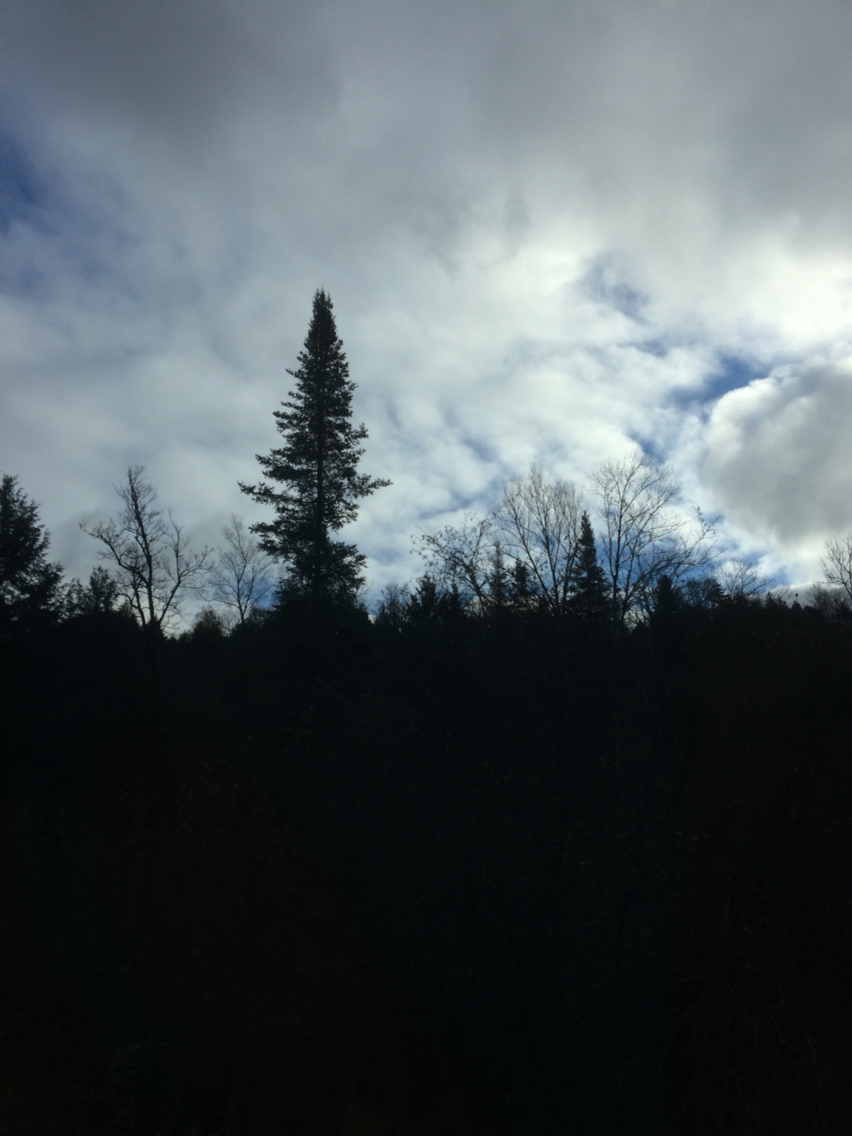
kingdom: Plantae
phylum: Tracheophyta
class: Pinopsida
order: Pinales
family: Pinaceae
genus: Abies
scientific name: Abies balsamea
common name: Balsam fir
